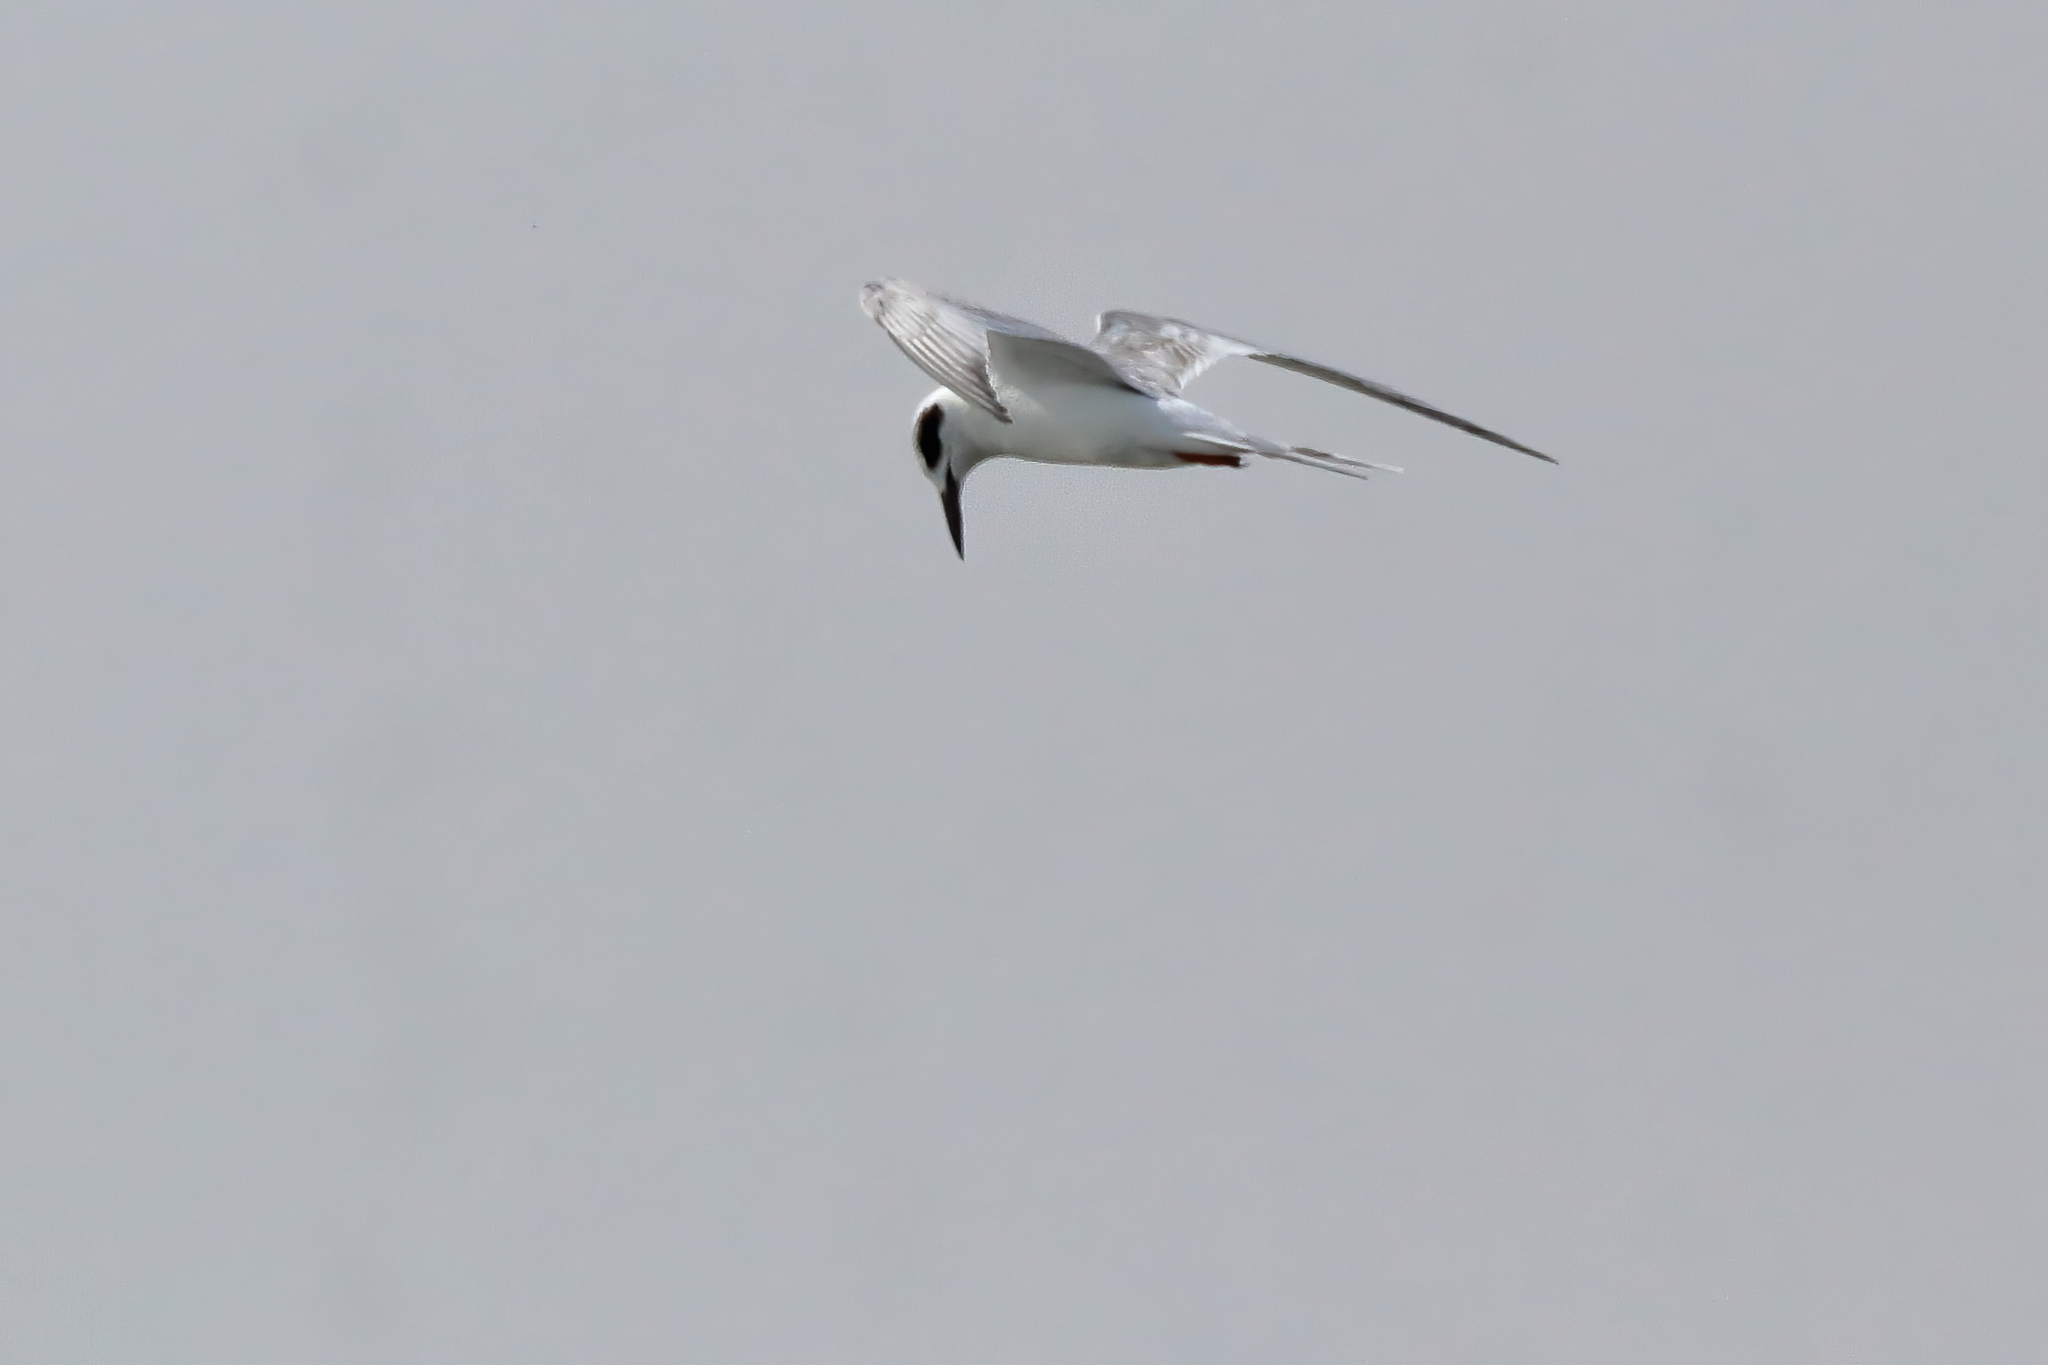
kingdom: Animalia
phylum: Chordata
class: Aves
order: Charadriiformes
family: Laridae
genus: Sterna
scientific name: Sterna forsteri
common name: Forster's tern
